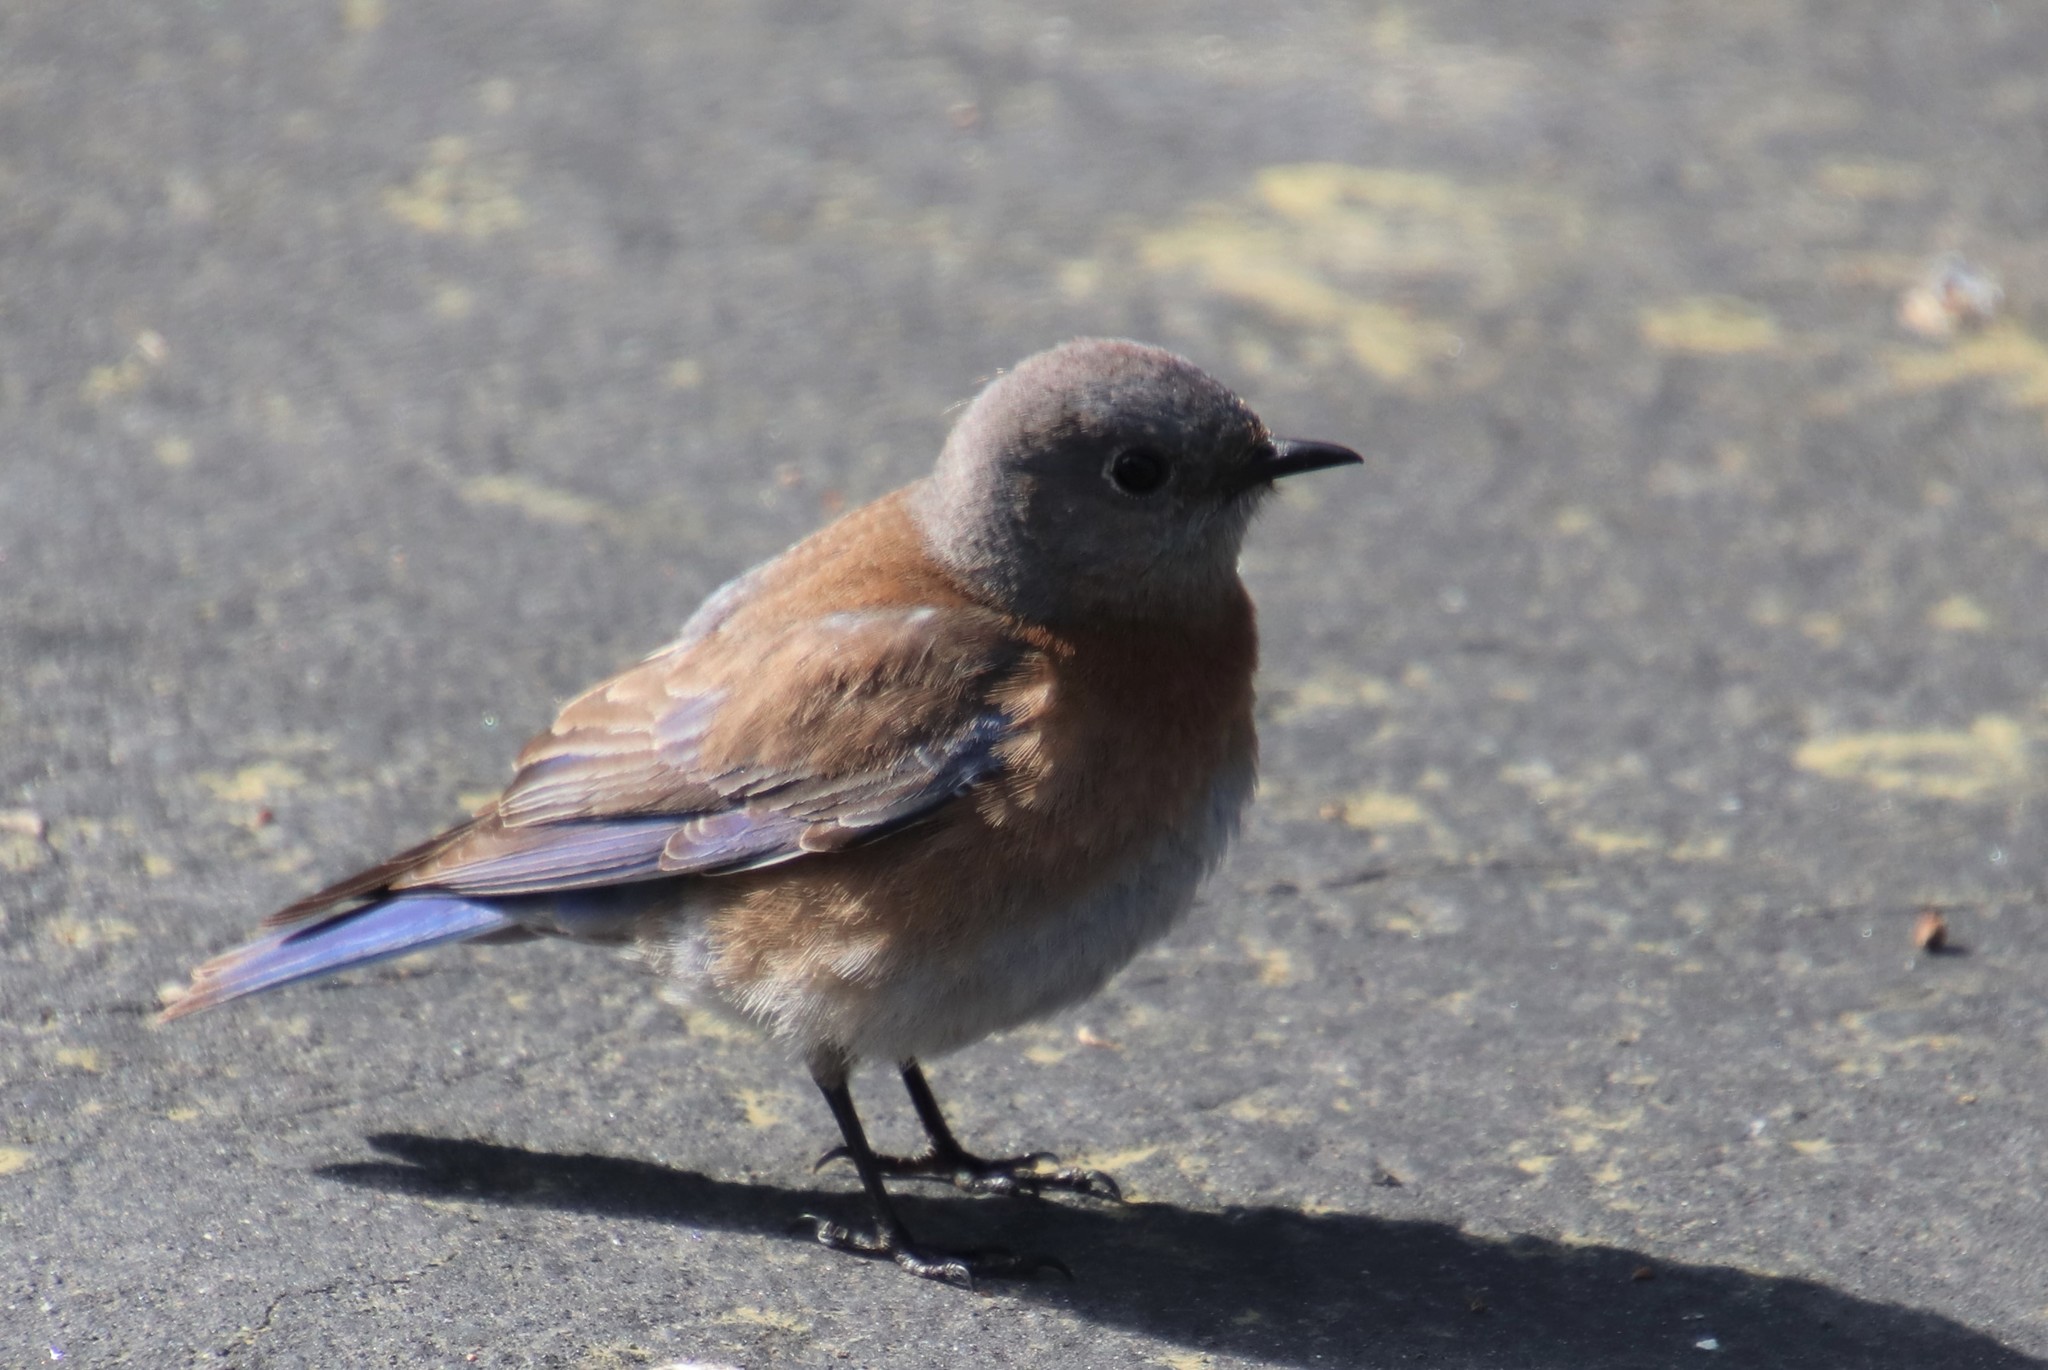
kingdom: Animalia
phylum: Chordata
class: Aves
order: Passeriformes
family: Turdidae
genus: Sialia
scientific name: Sialia mexicana
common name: Western bluebird
